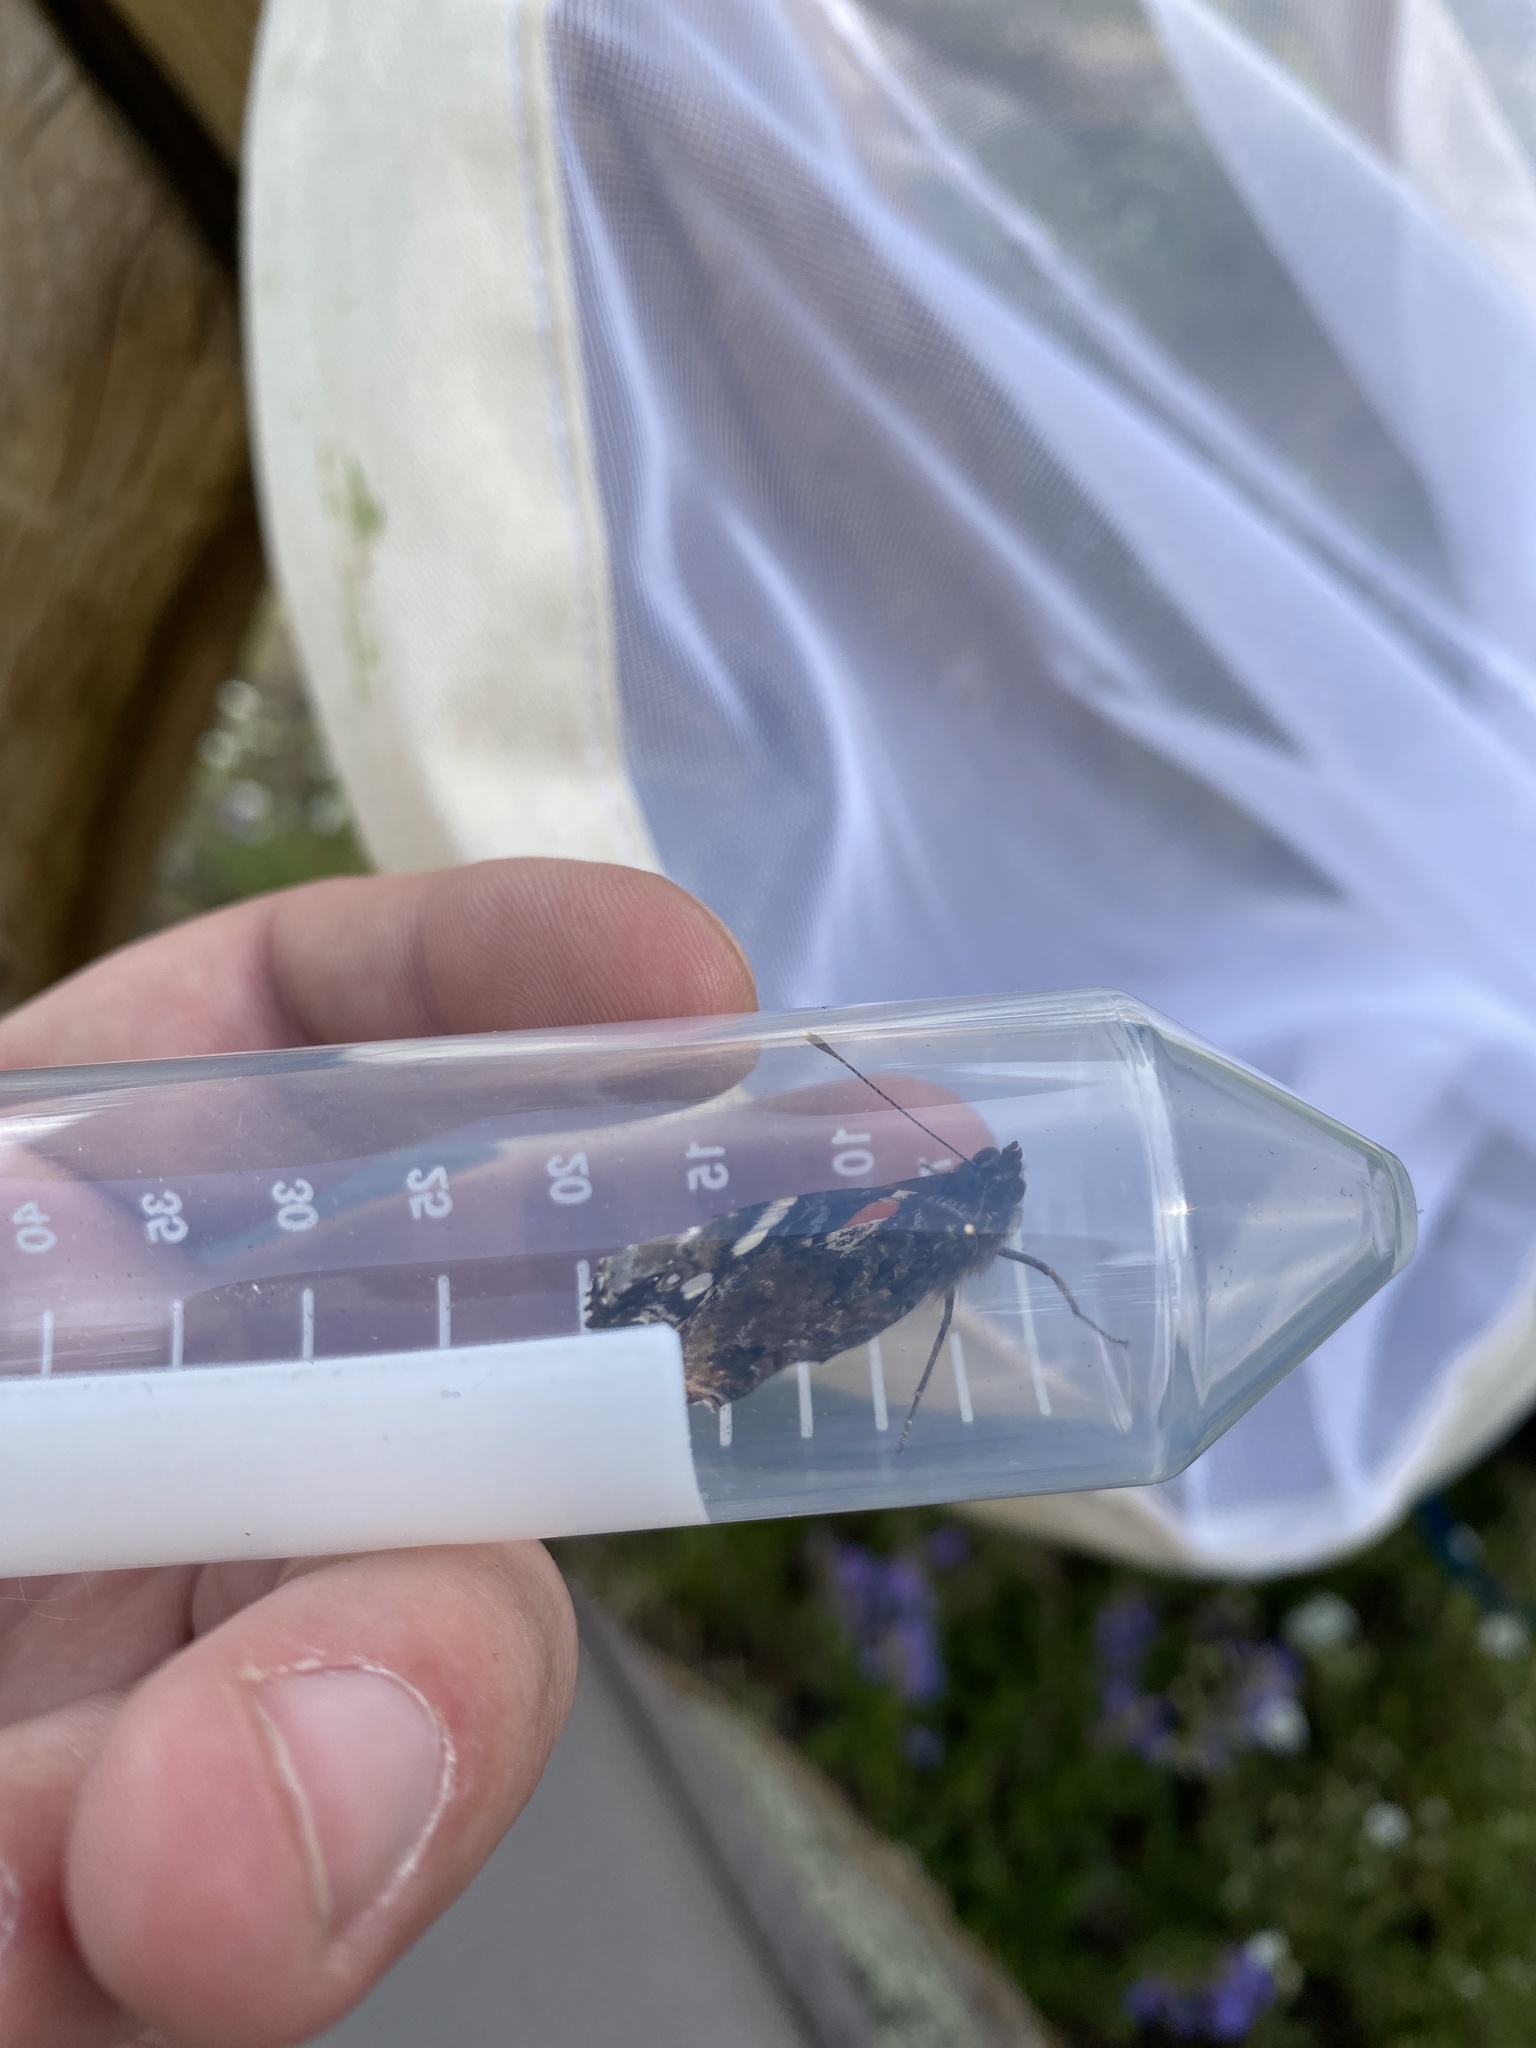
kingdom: Animalia
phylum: Arthropoda
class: Insecta
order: Lepidoptera
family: Nymphalidae
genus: Vanessa
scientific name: Vanessa atalanta
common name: Red admiral
